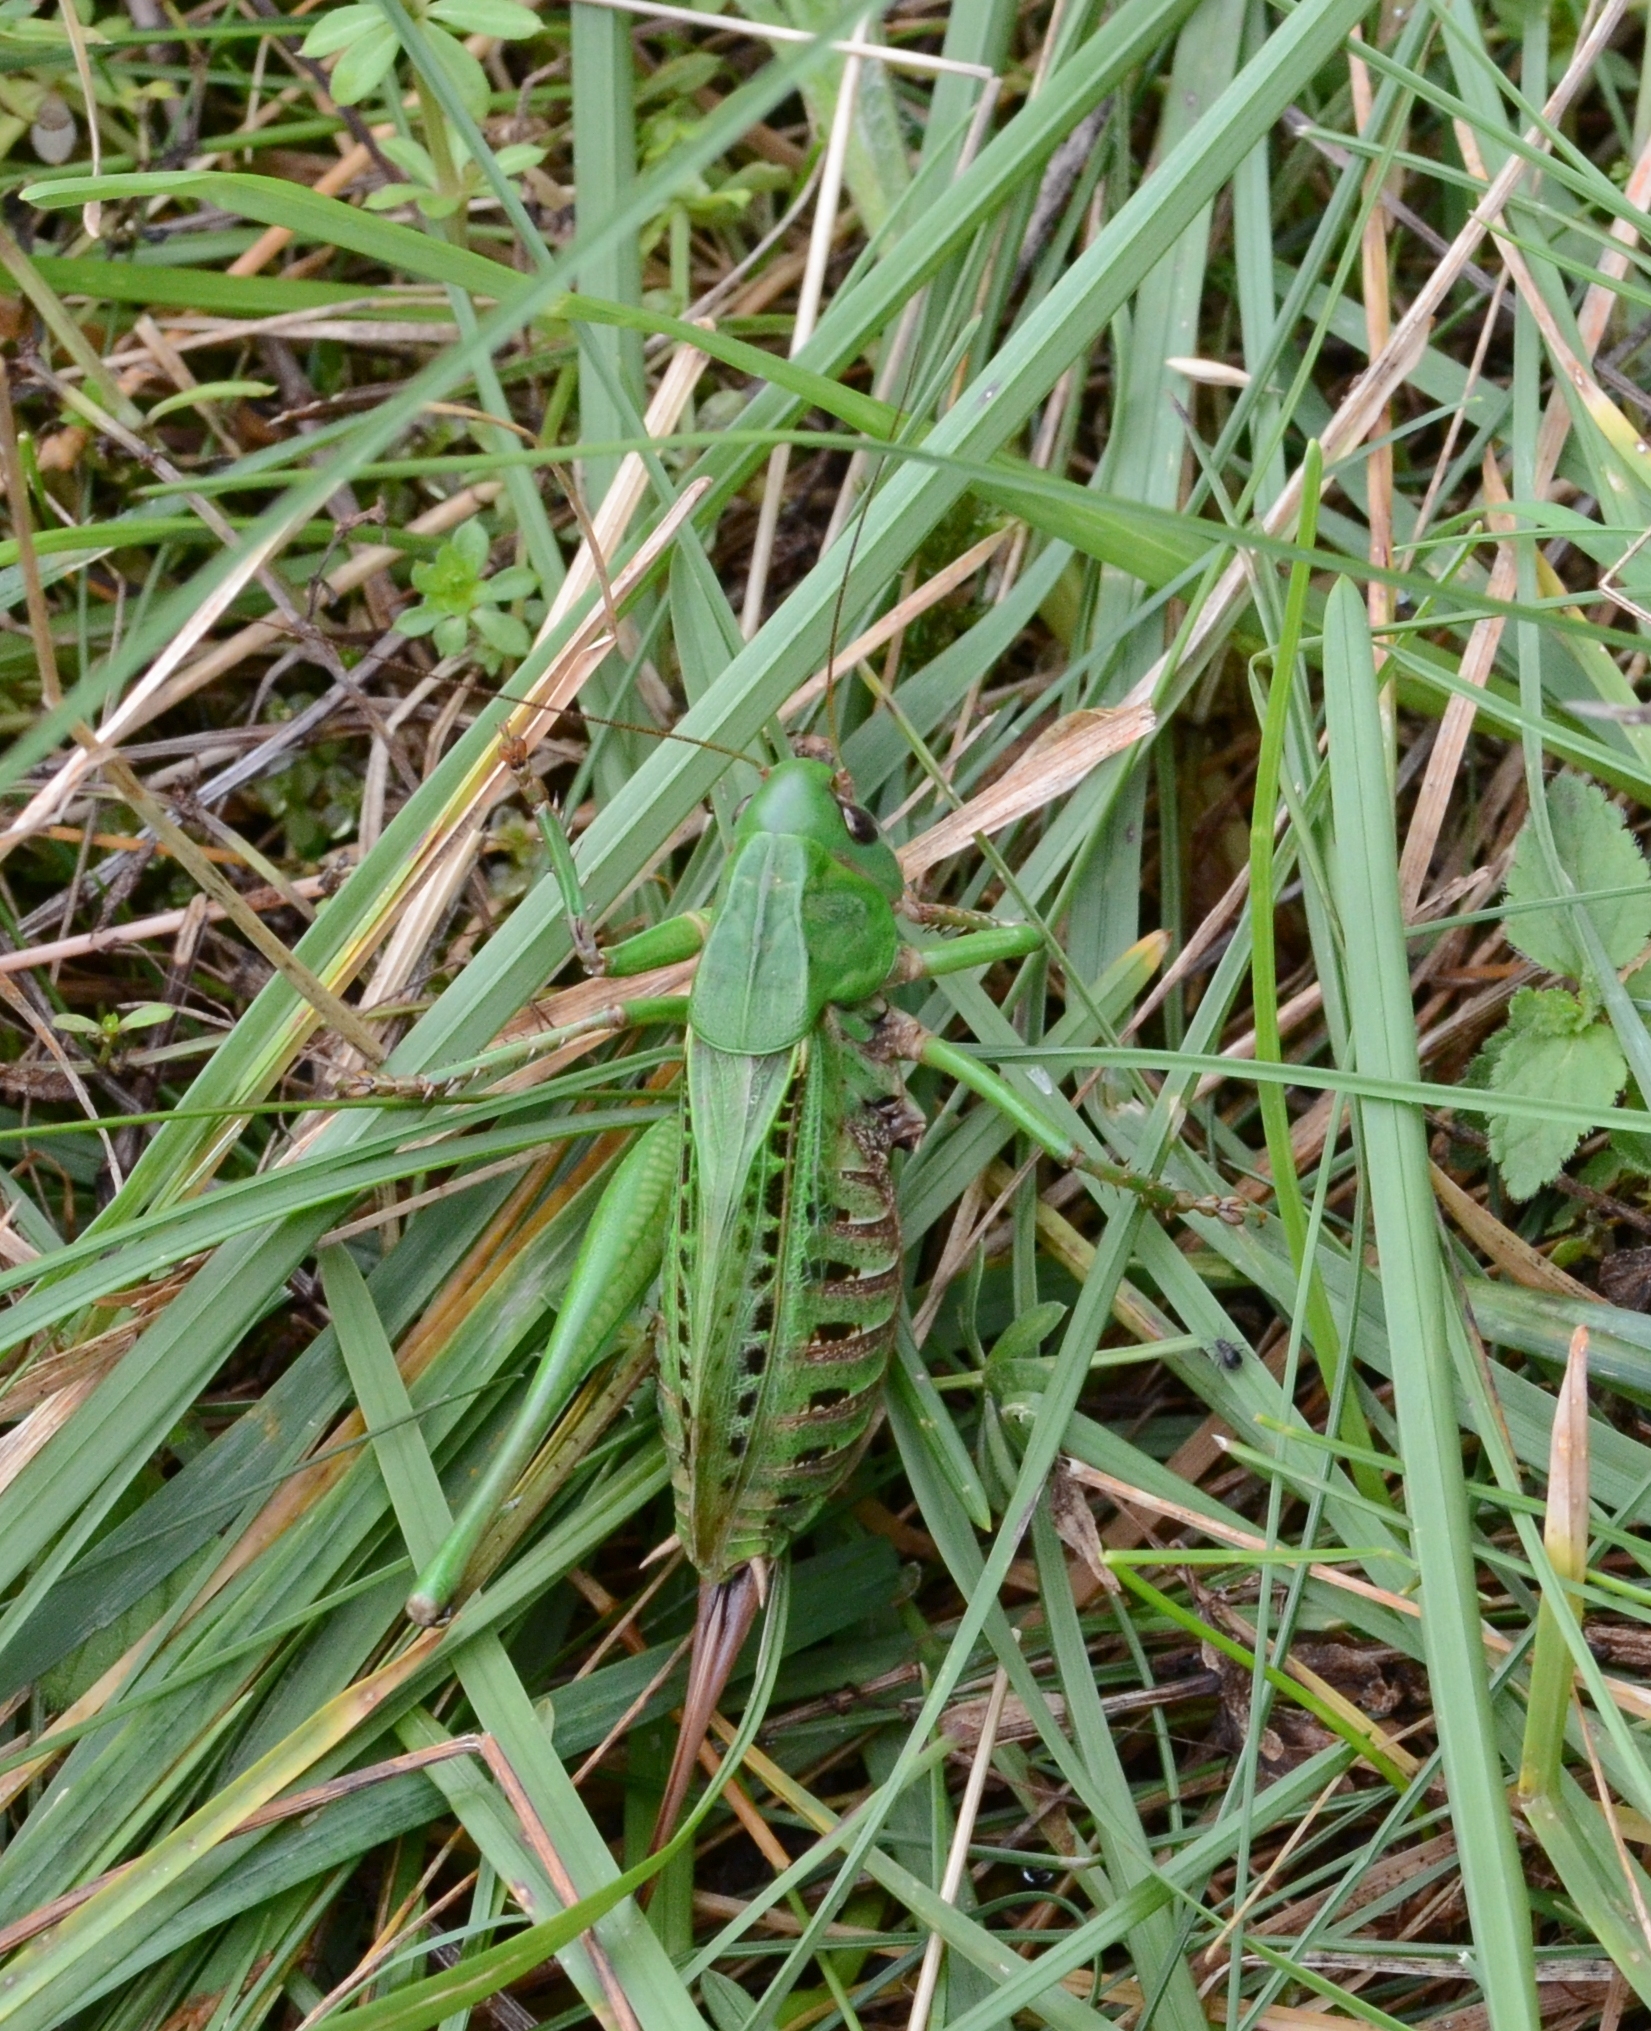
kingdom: Animalia
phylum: Arthropoda
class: Insecta
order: Orthoptera
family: Tettigoniidae
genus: Decticus
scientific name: Decticus verrucivorus
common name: Wart-biter
